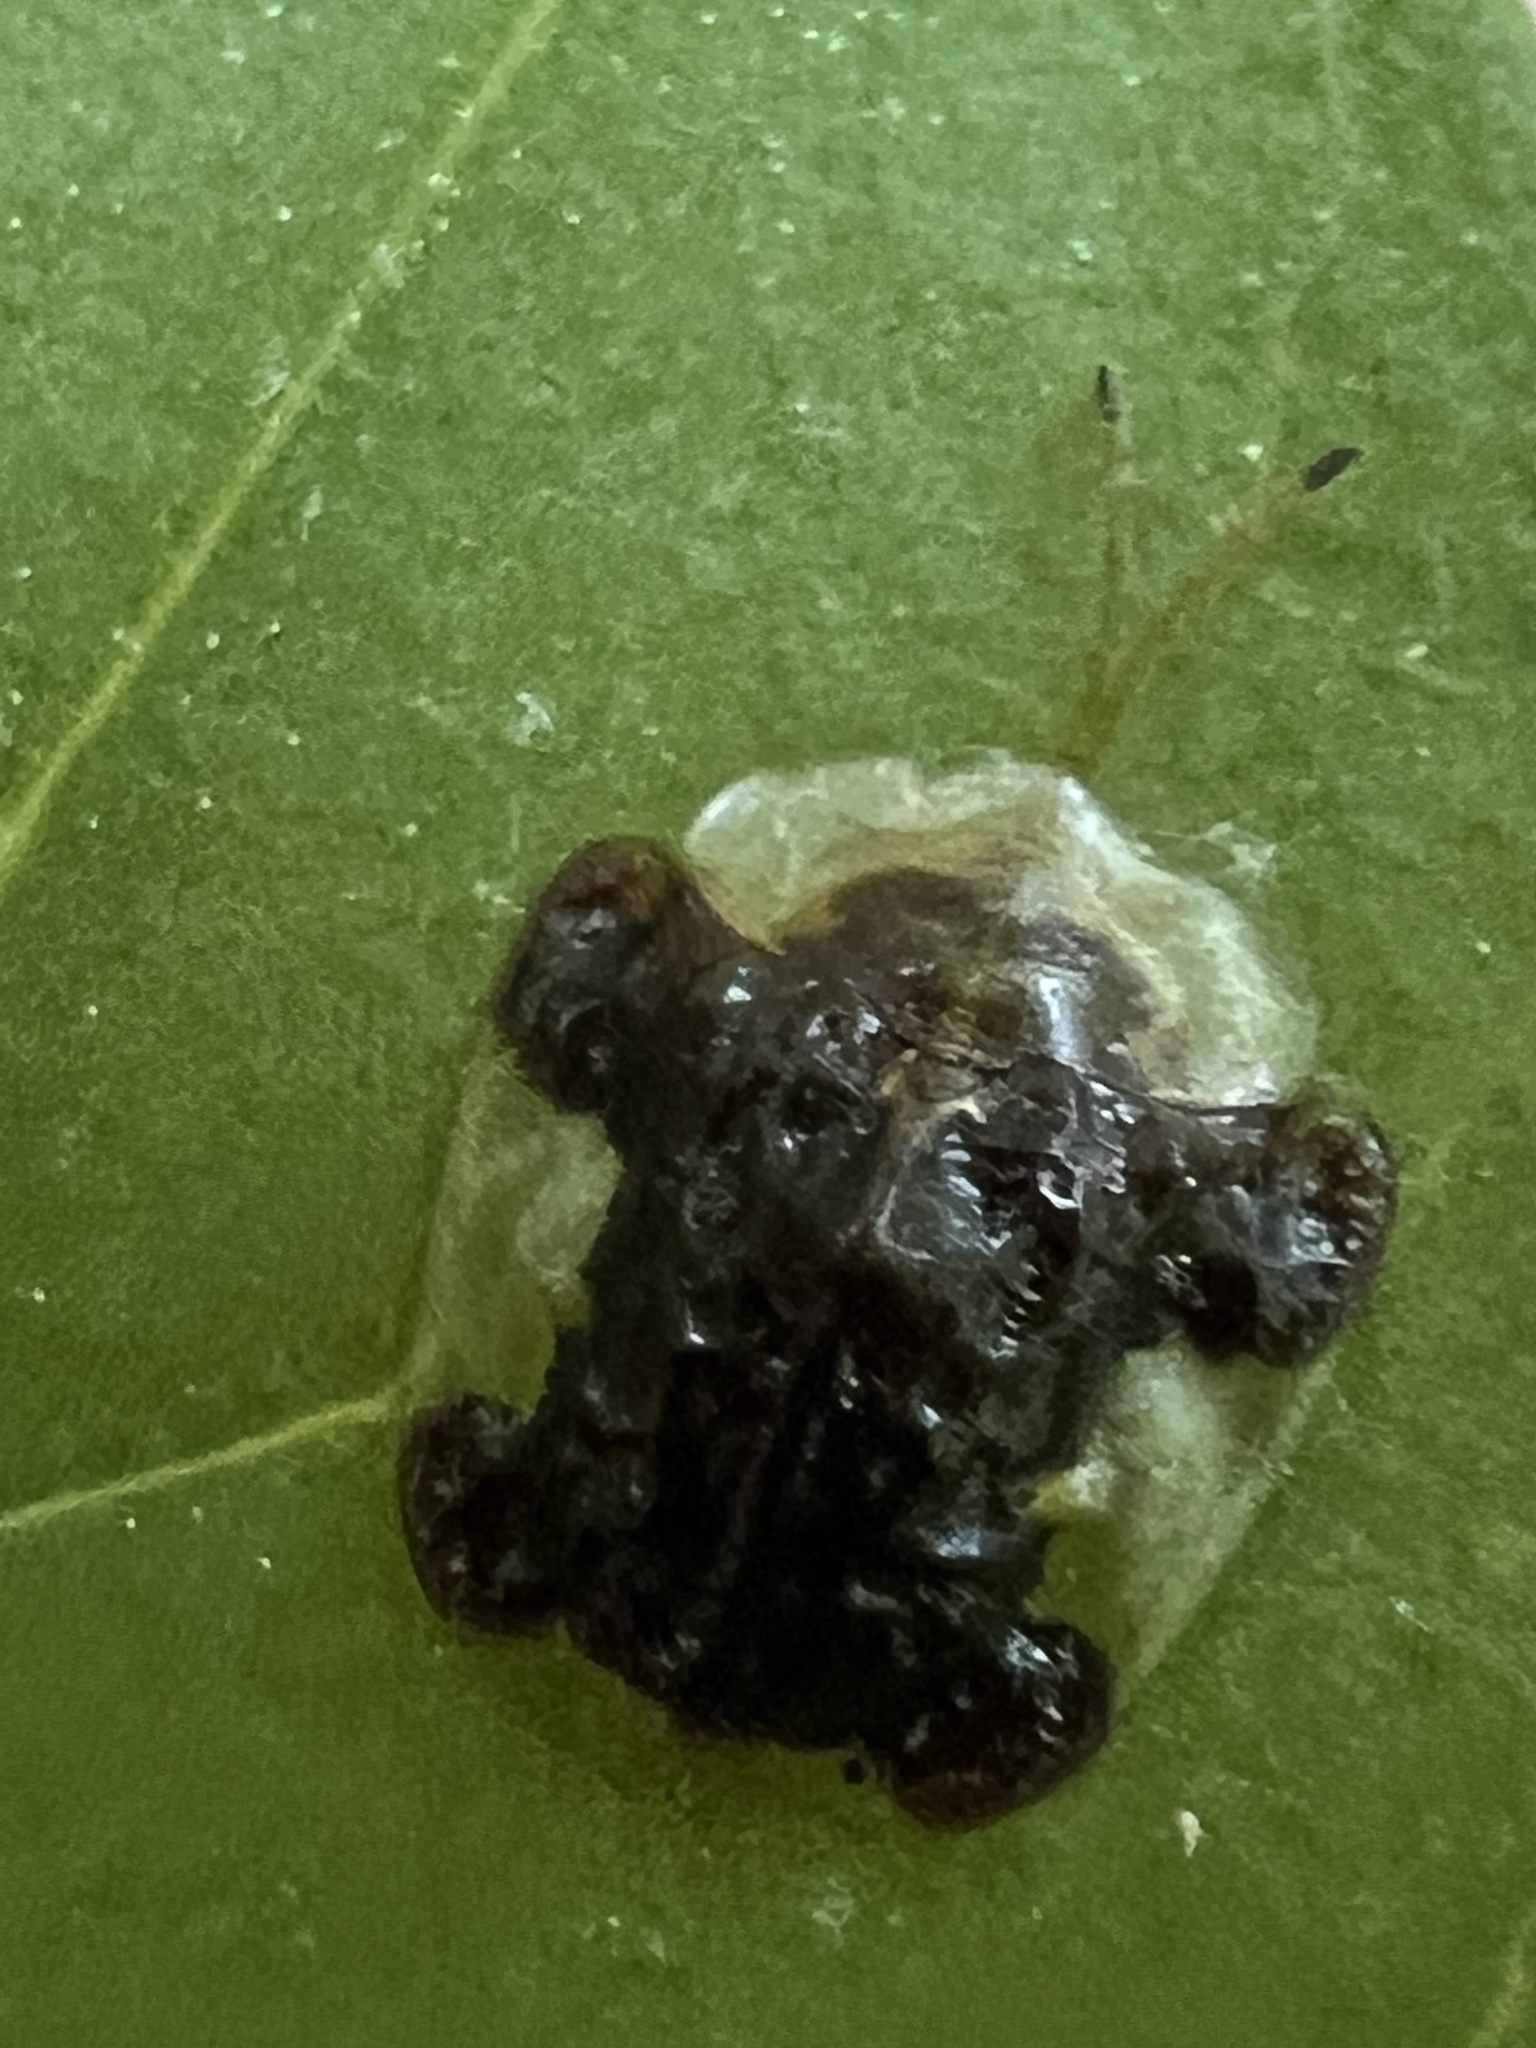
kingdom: Animalia
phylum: Arthropoda
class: Insecta
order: Coleoptera
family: Chrysomelidae
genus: Helocassis
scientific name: Helocassis clavata
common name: Clavate tortoise beetle
